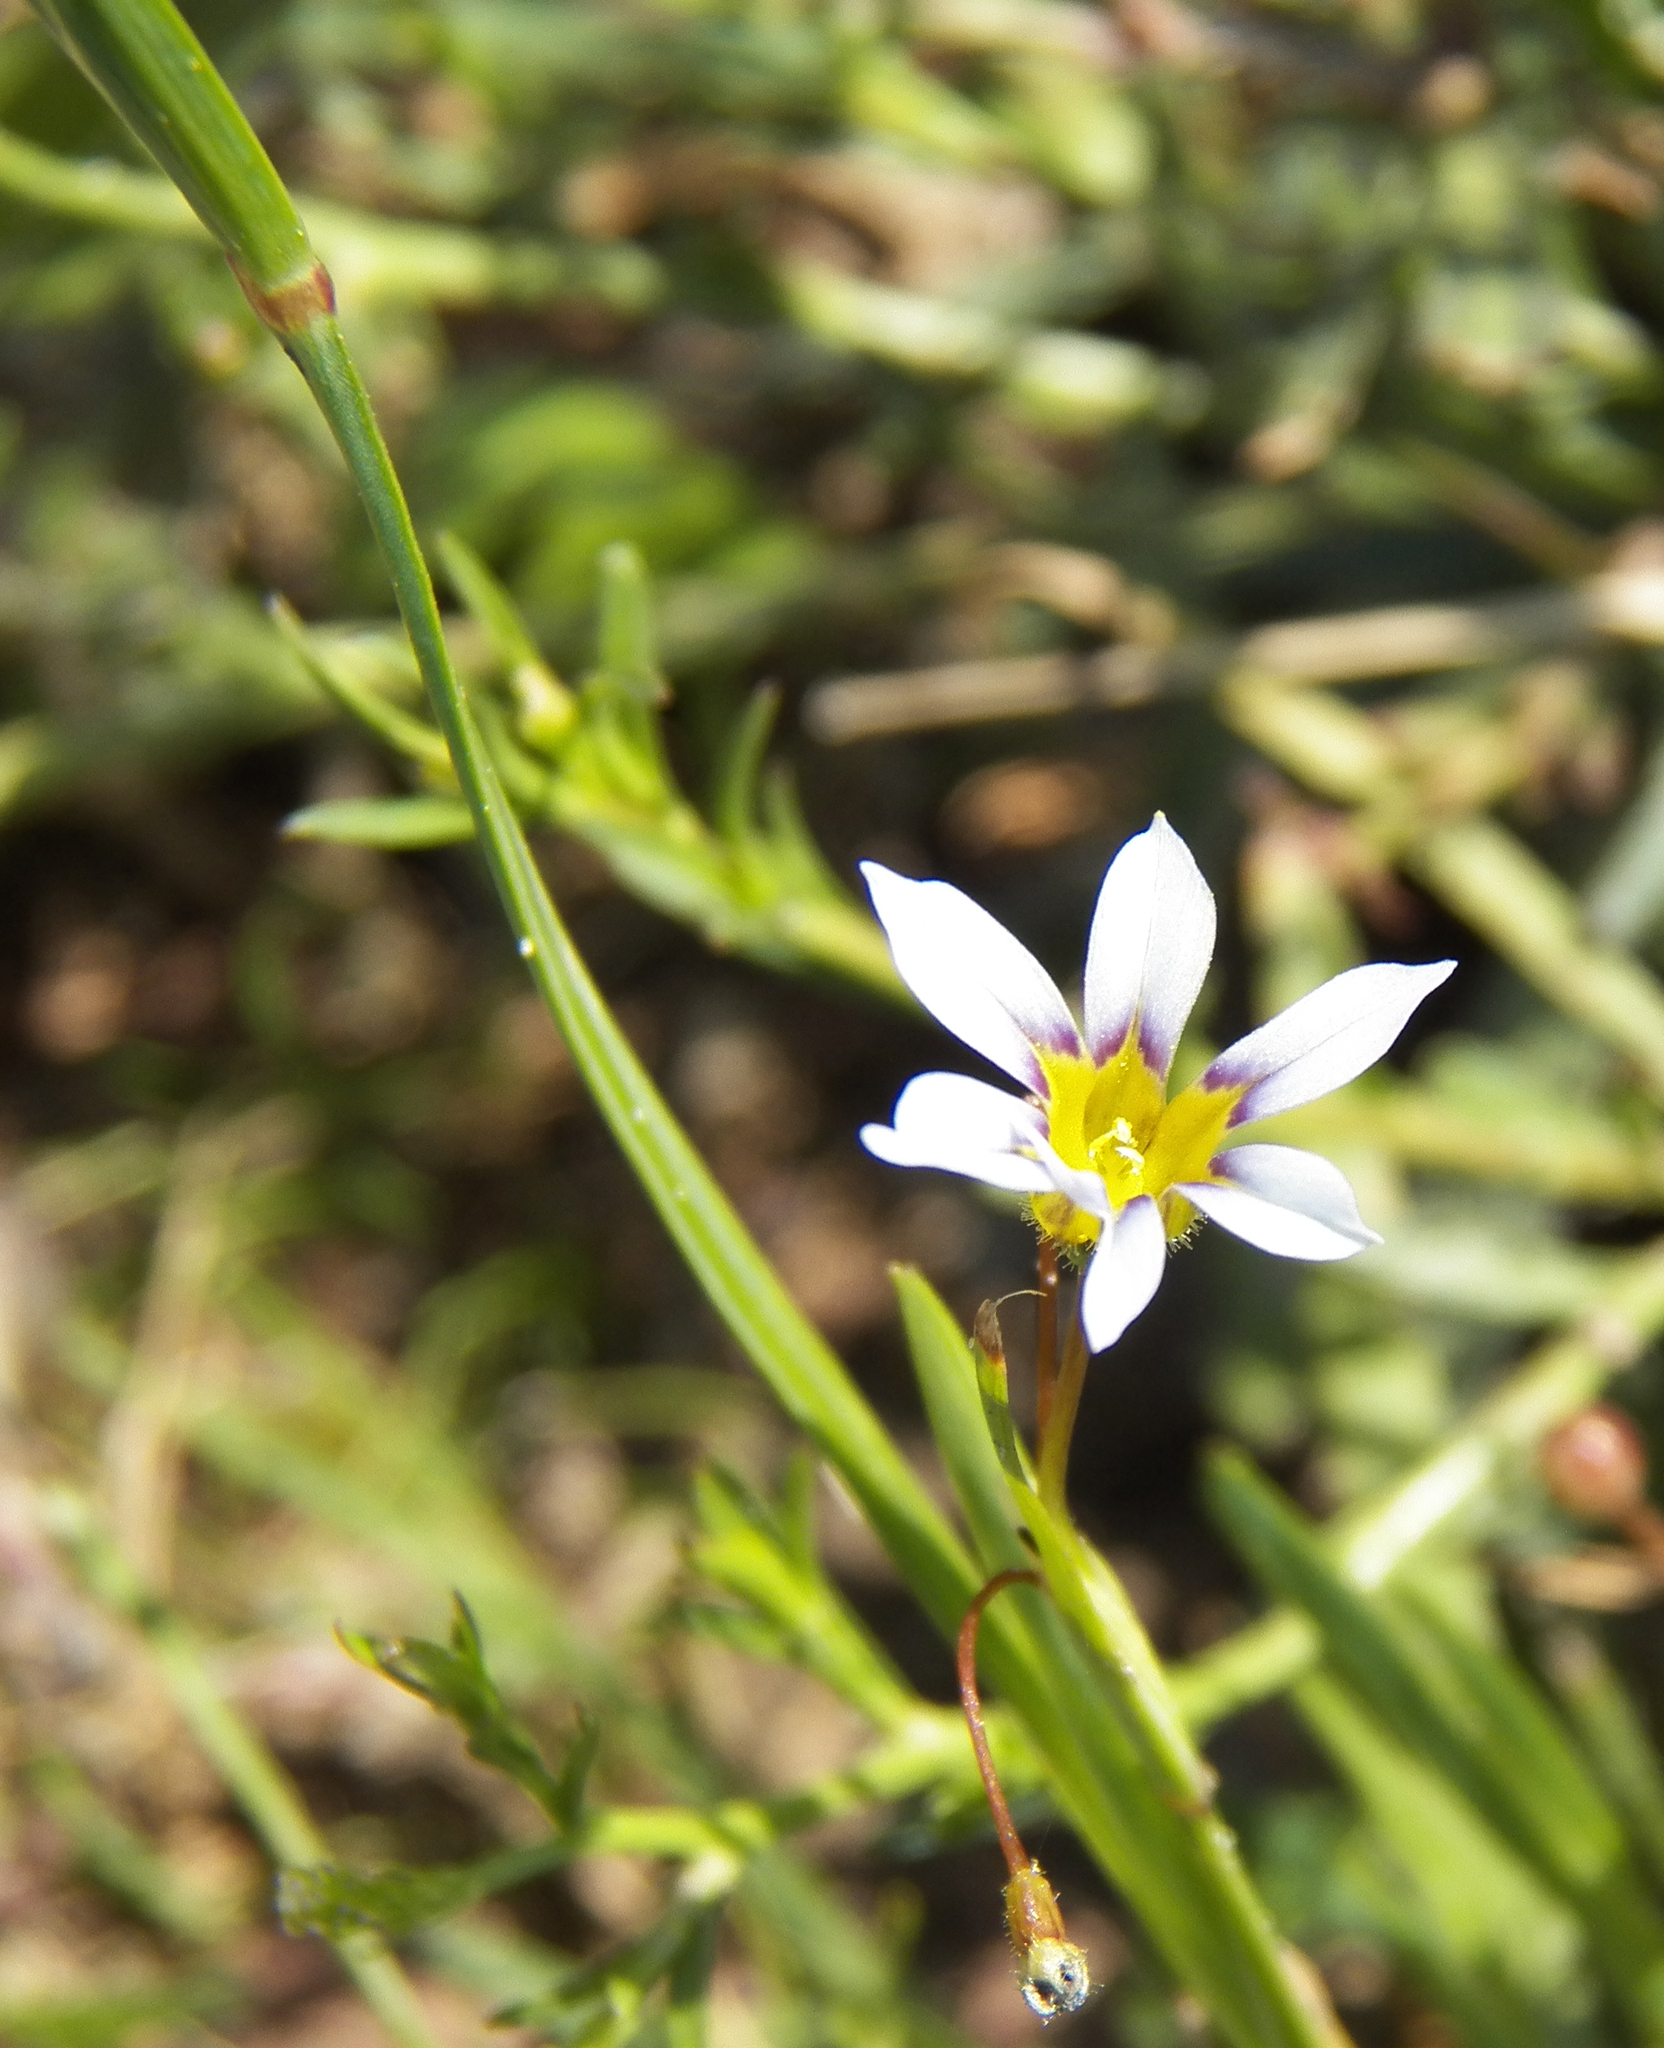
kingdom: Plantae
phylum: Tracheophyta
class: Liliopsida
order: Asparagales
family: Iridaceae
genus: Sisyrinchium
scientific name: Sisyrinchium micranthum
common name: Bermuda pigroot
